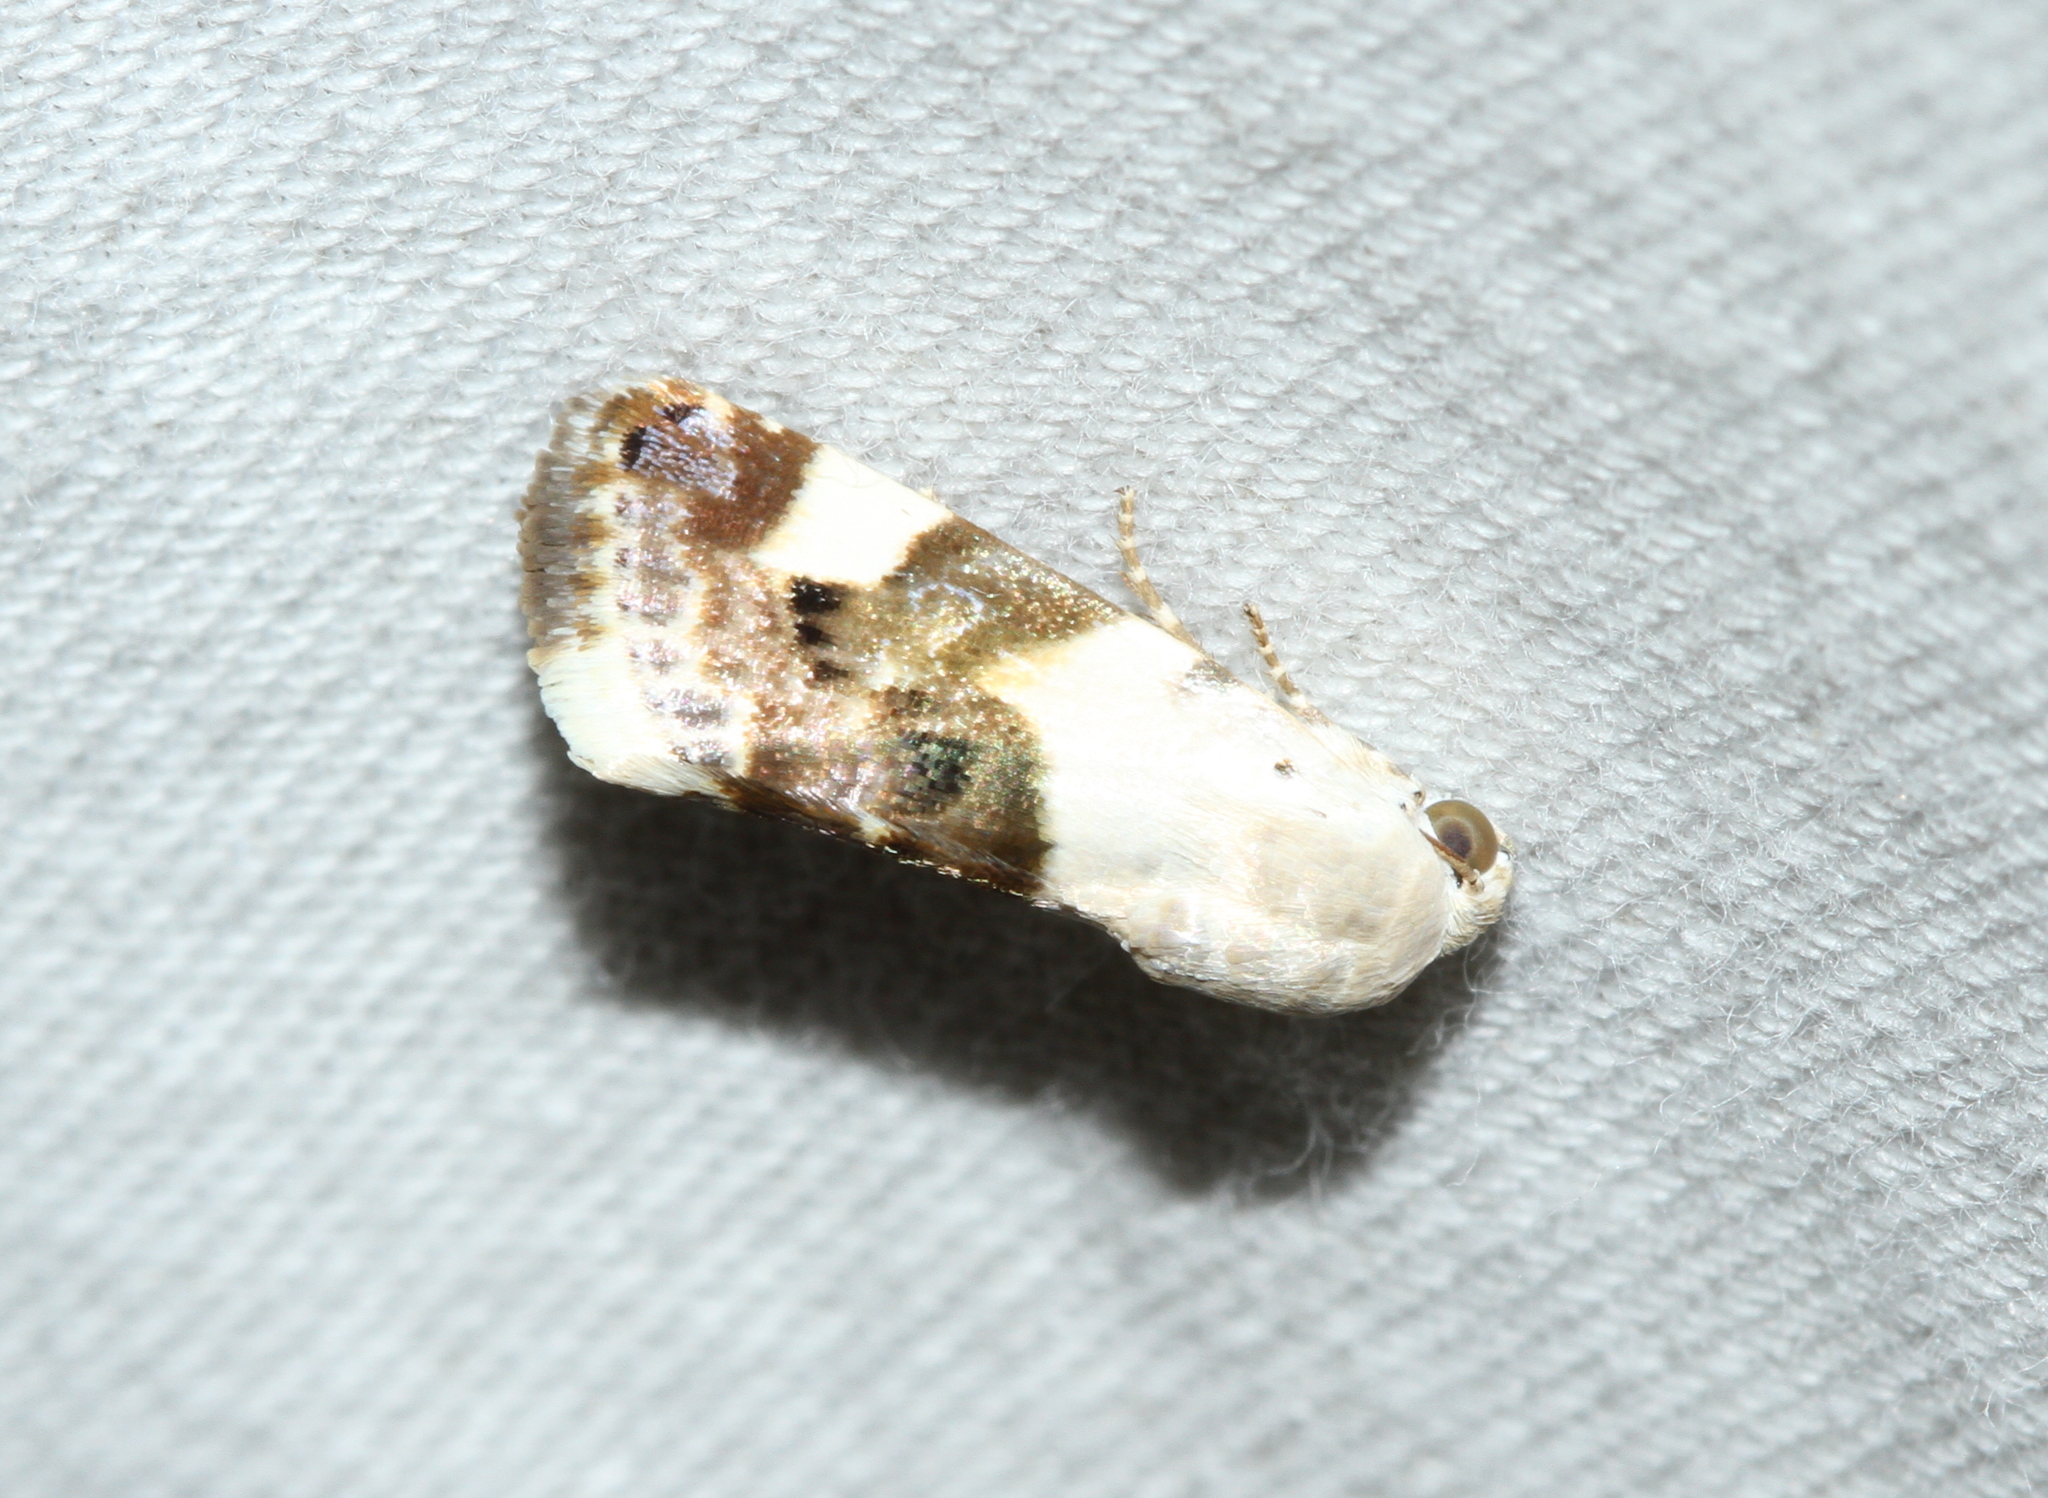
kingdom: Animalia
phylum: Arthropoda
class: Insecta
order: Lepidoptera
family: Noctuidae
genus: Acontia
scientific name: Acontia lucida
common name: Pale shoulder
